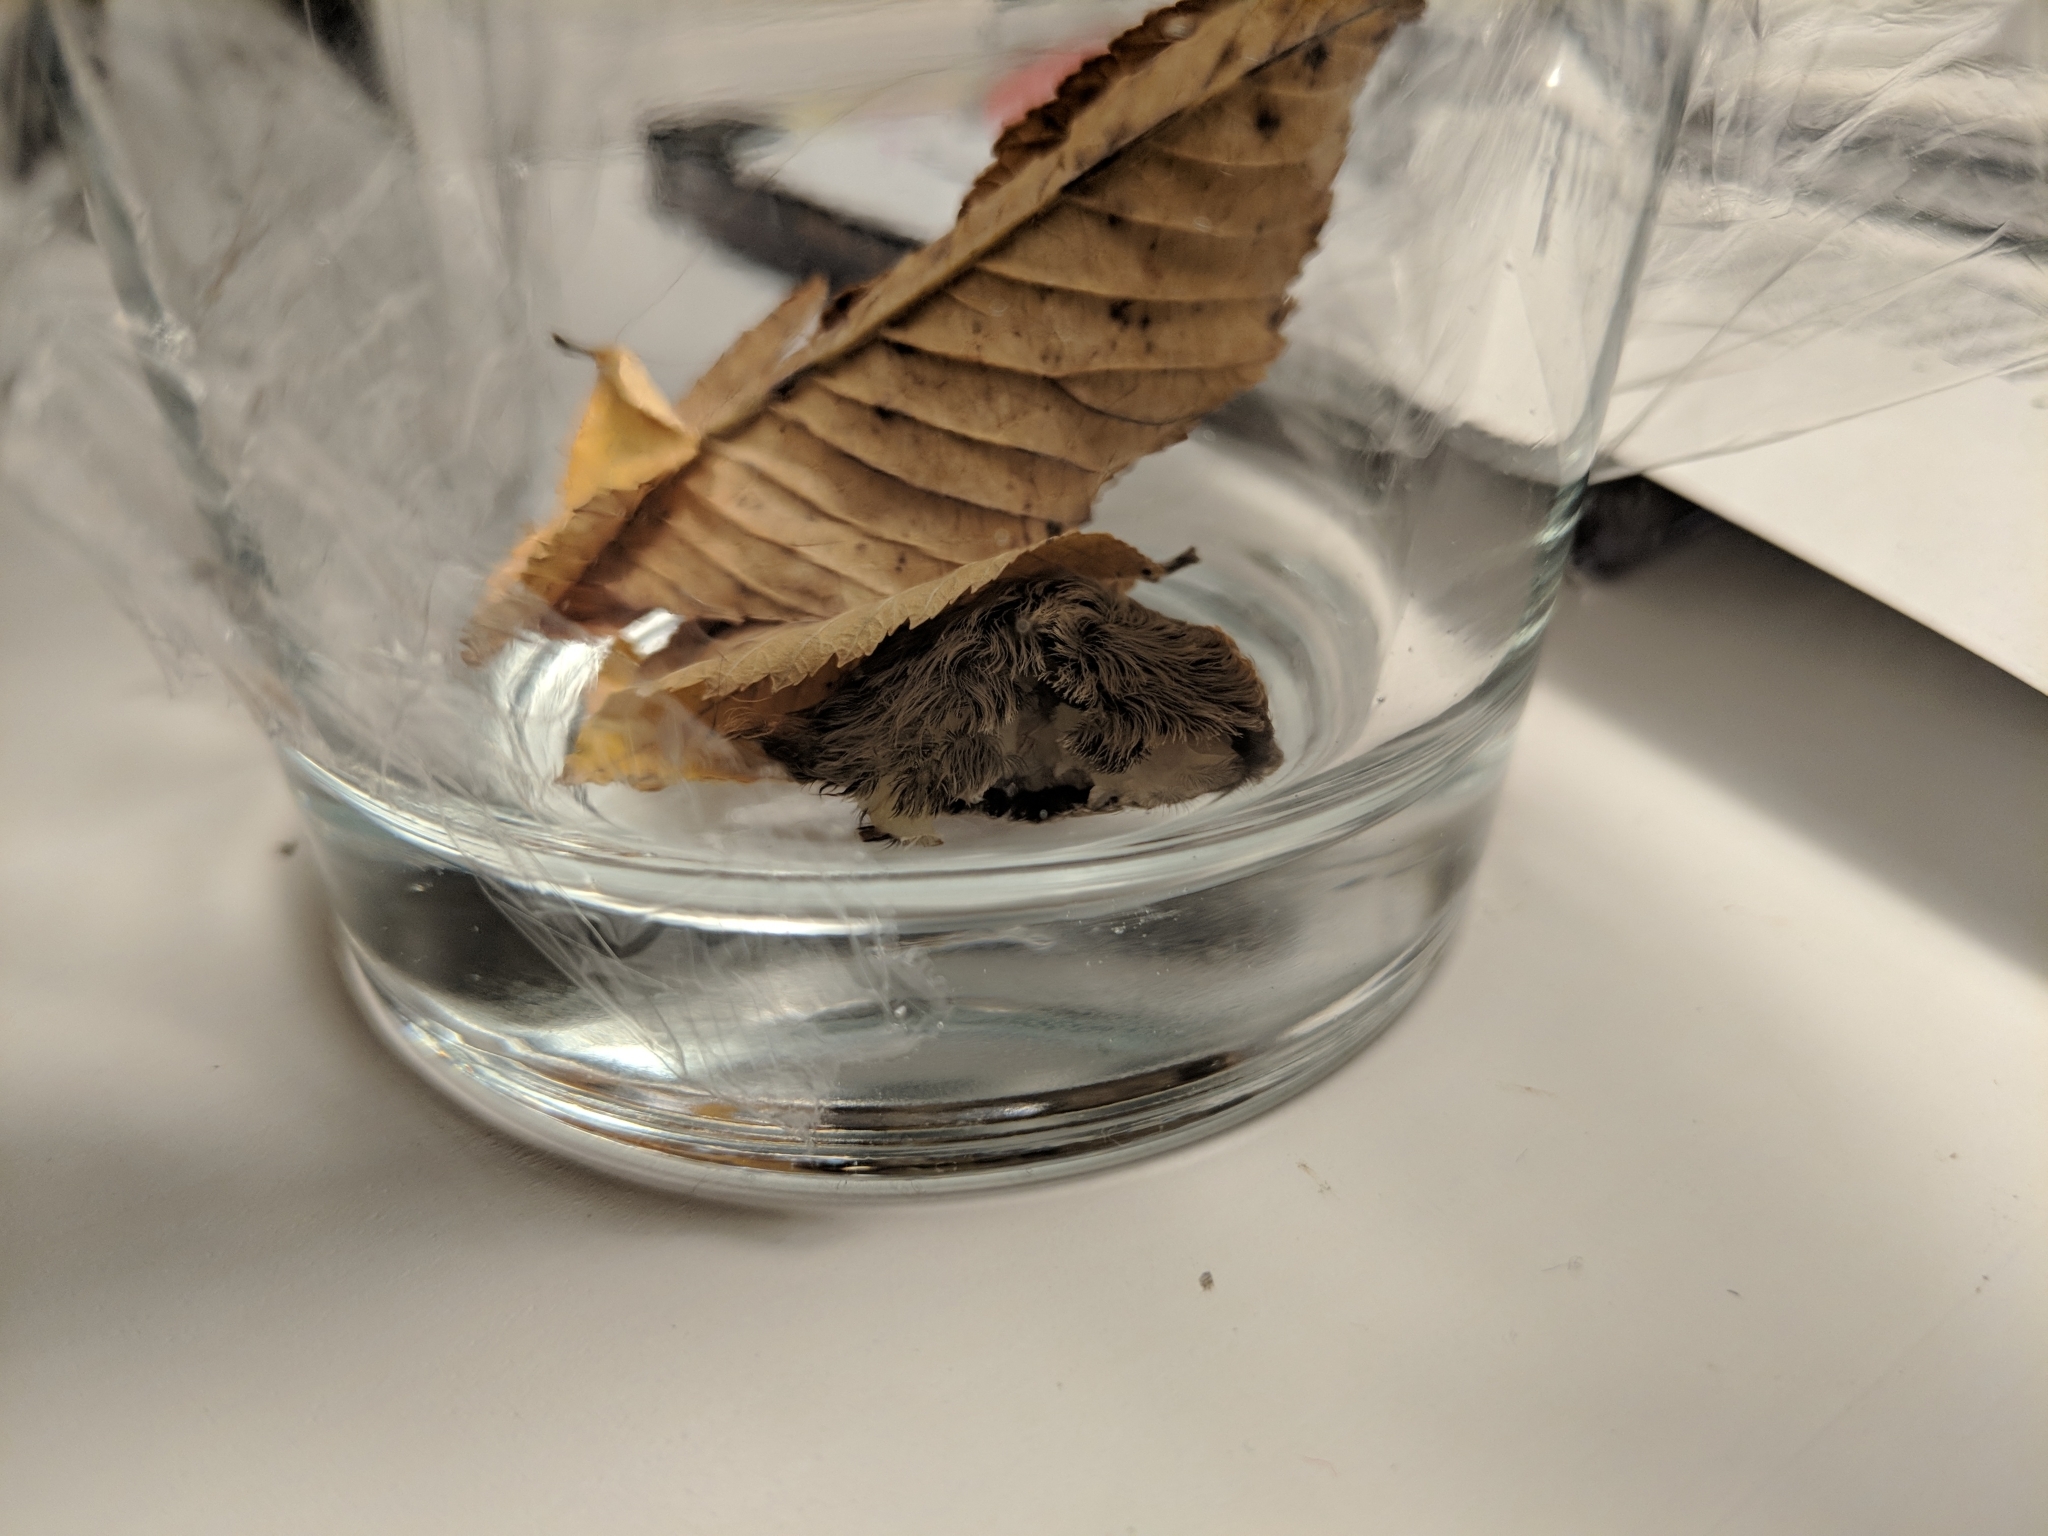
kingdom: Animalia
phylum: Arthropoda
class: Insecta
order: Lepidoptera
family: Megalopygidae
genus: Megalopyge
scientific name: Megalopyge opercularis
